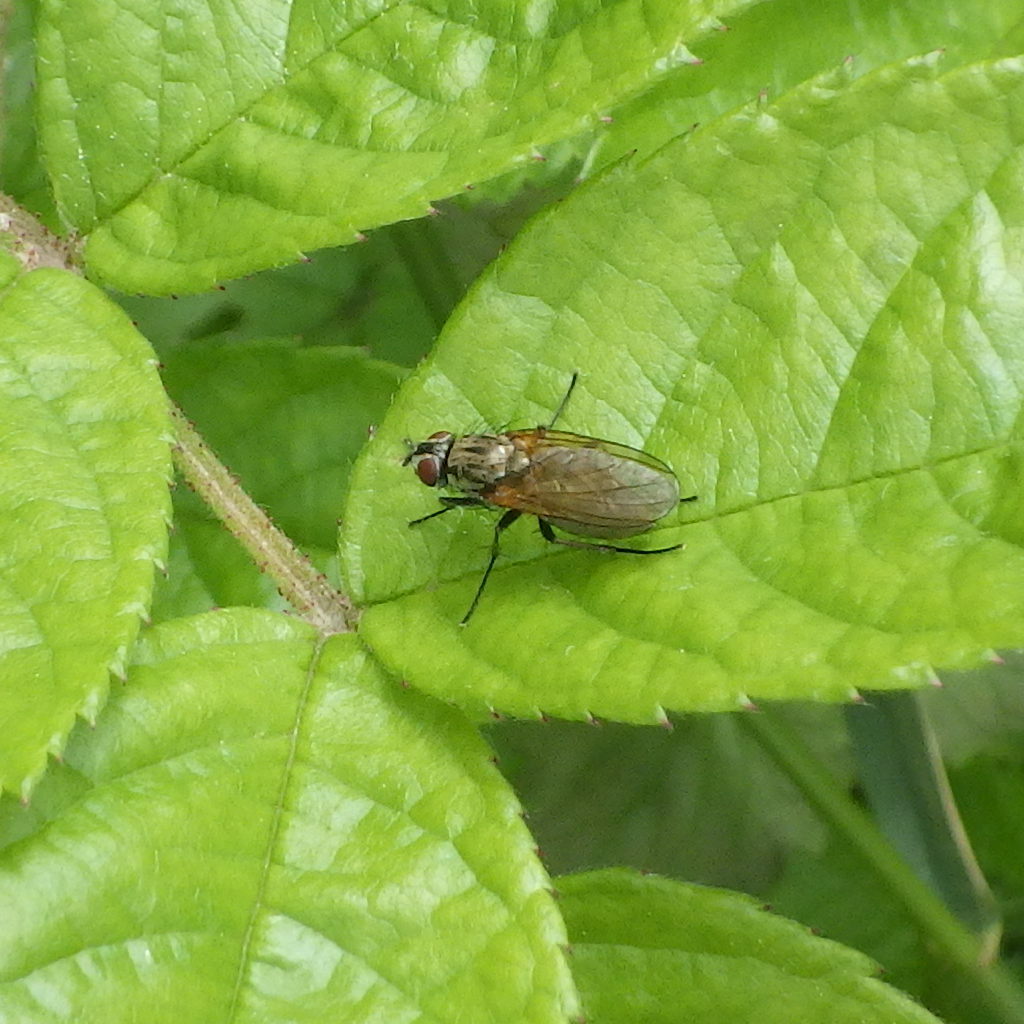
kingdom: Animalia
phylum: Arthropoda
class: Insecta
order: Diptera
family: Anthomyiidae
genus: Hydrophoria
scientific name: Hydrophoria lancifer
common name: Root-maggot fly
